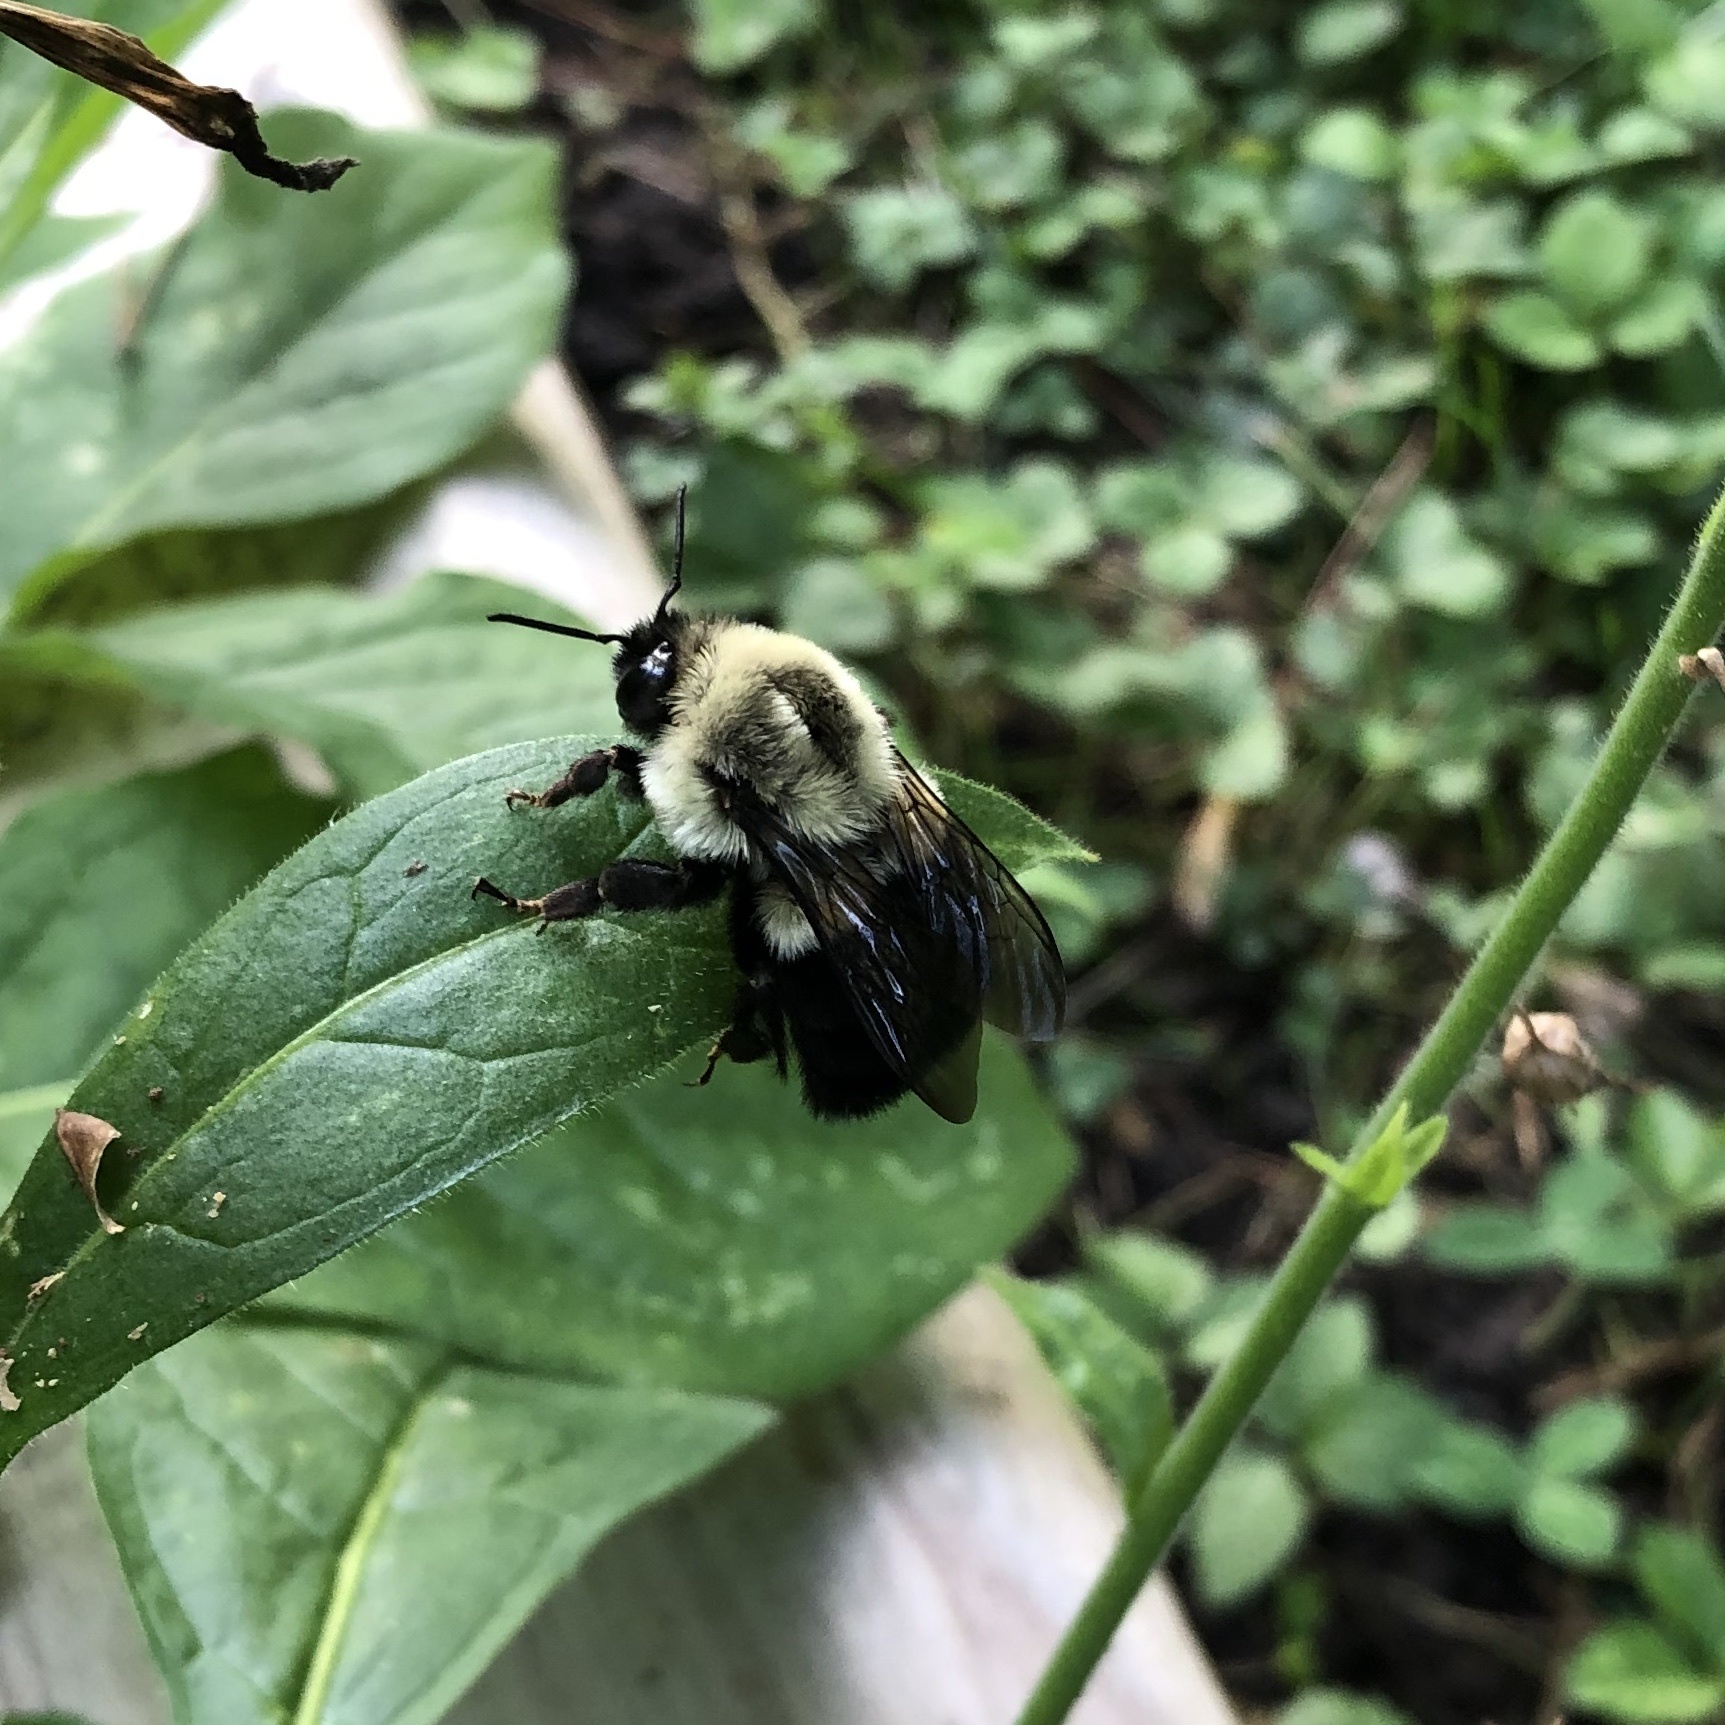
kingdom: Animalia
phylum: Arthropoda
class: Insecta
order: Hymenoptera
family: Apidae
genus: Bombus
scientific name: Bombus impatiens
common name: Common eastern bumble bee
